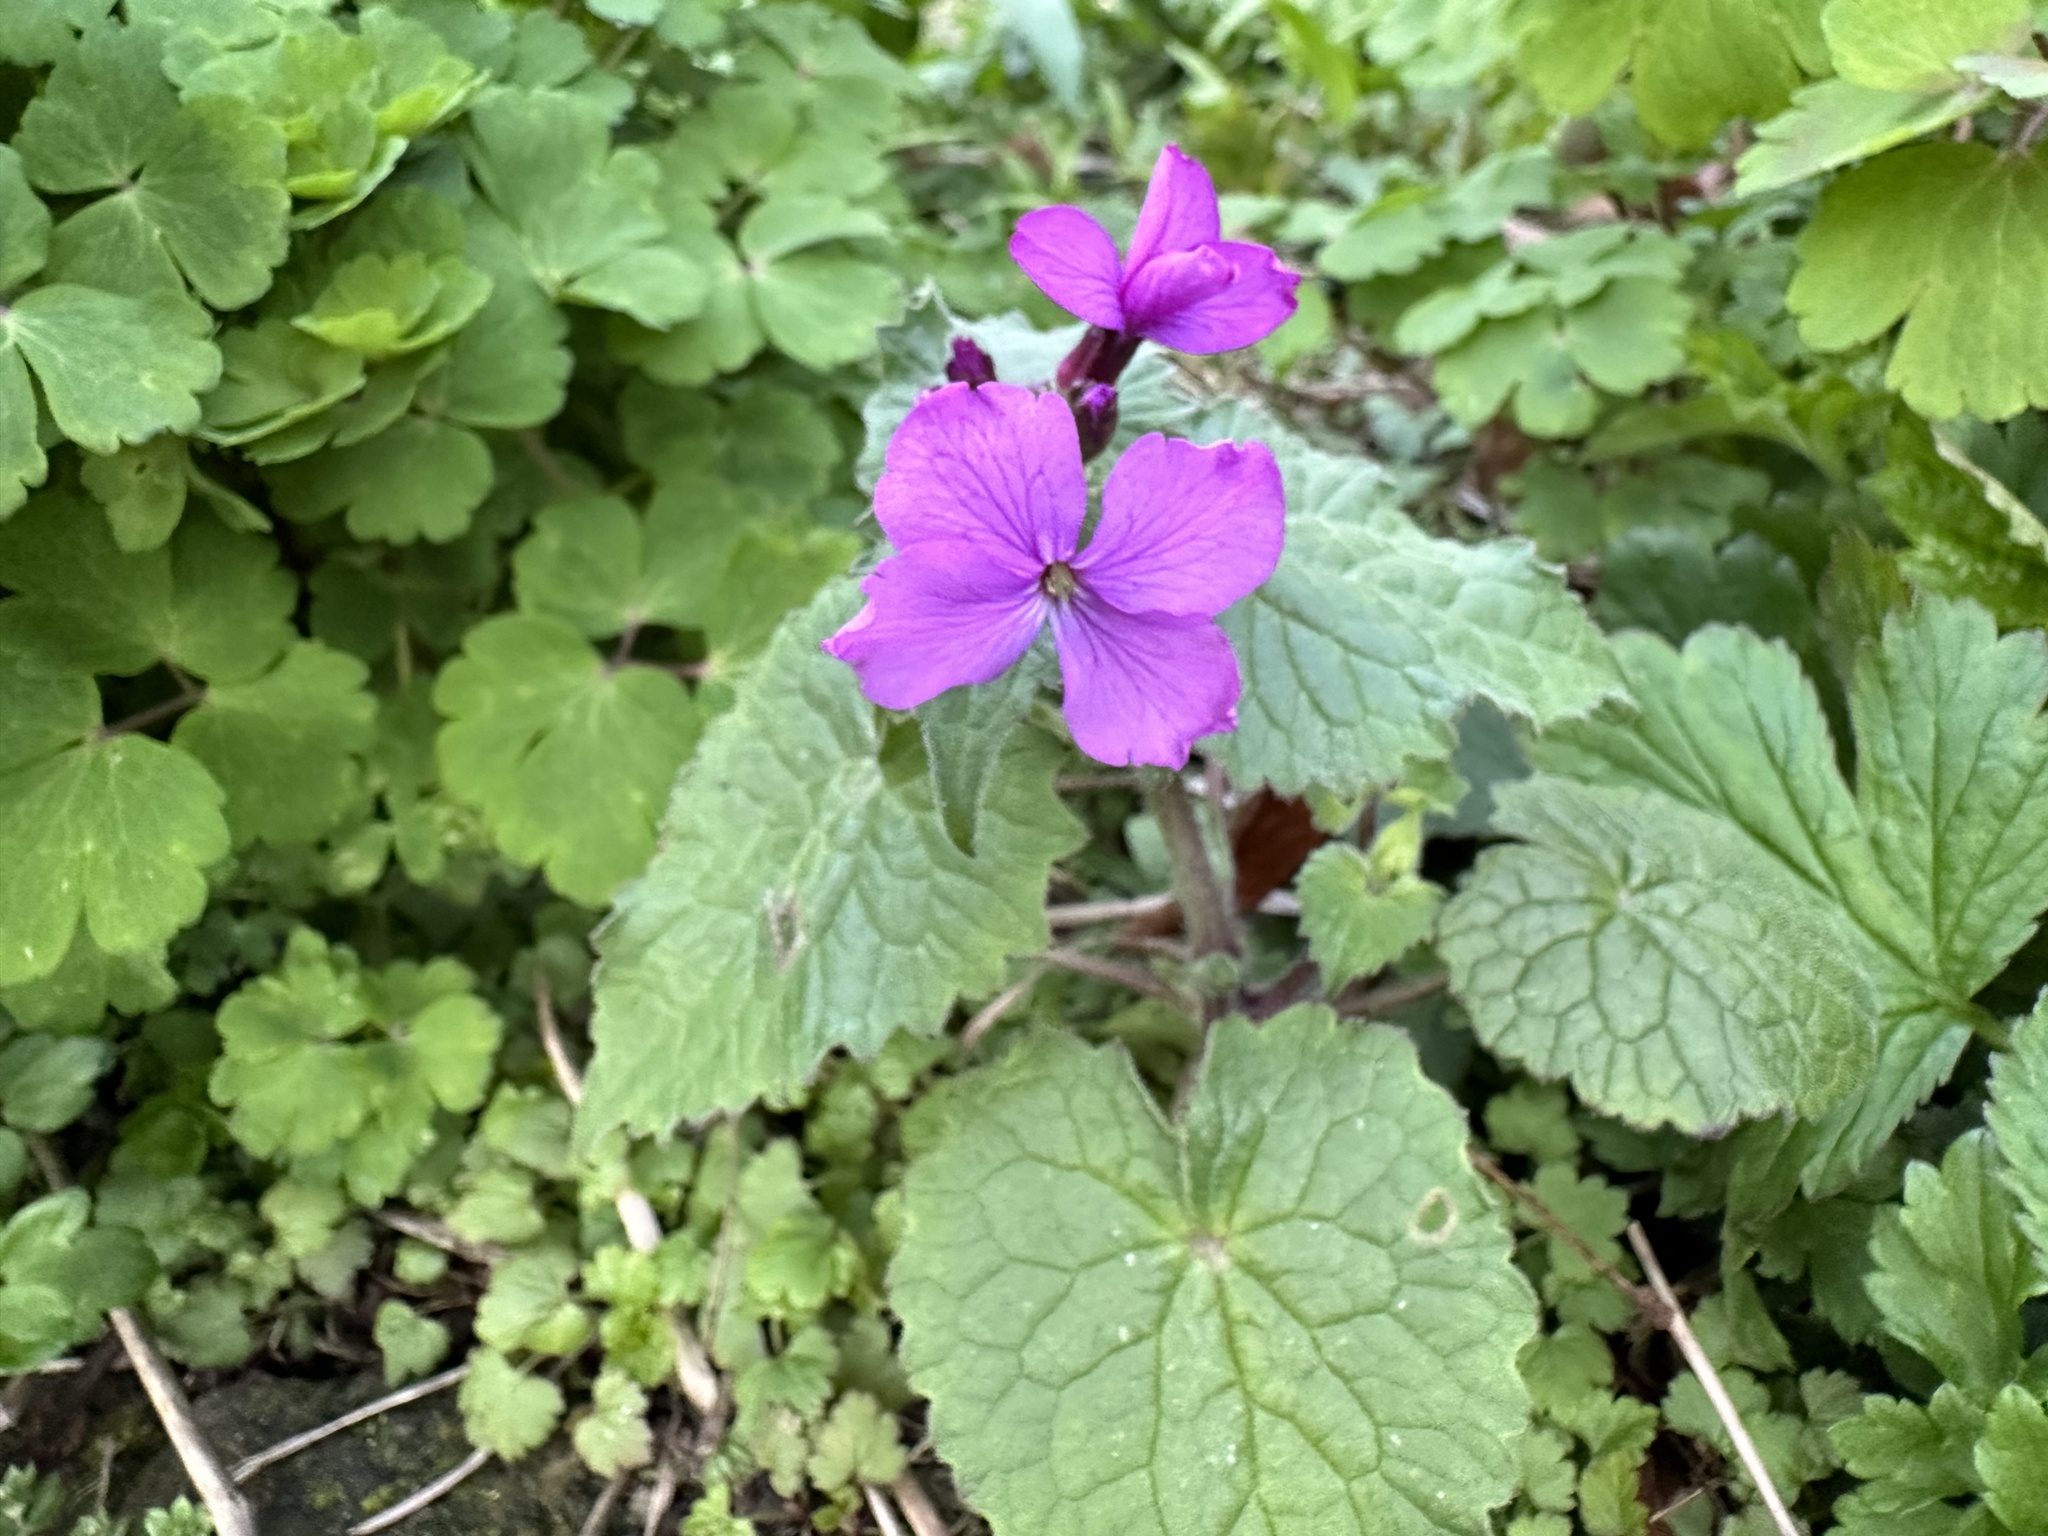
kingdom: Plantae
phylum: Tracheophyta
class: Magnoliopsida
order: Brassicales
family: Brassicaceae
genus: Lunaria
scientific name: Lunaria annua
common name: Honesty
